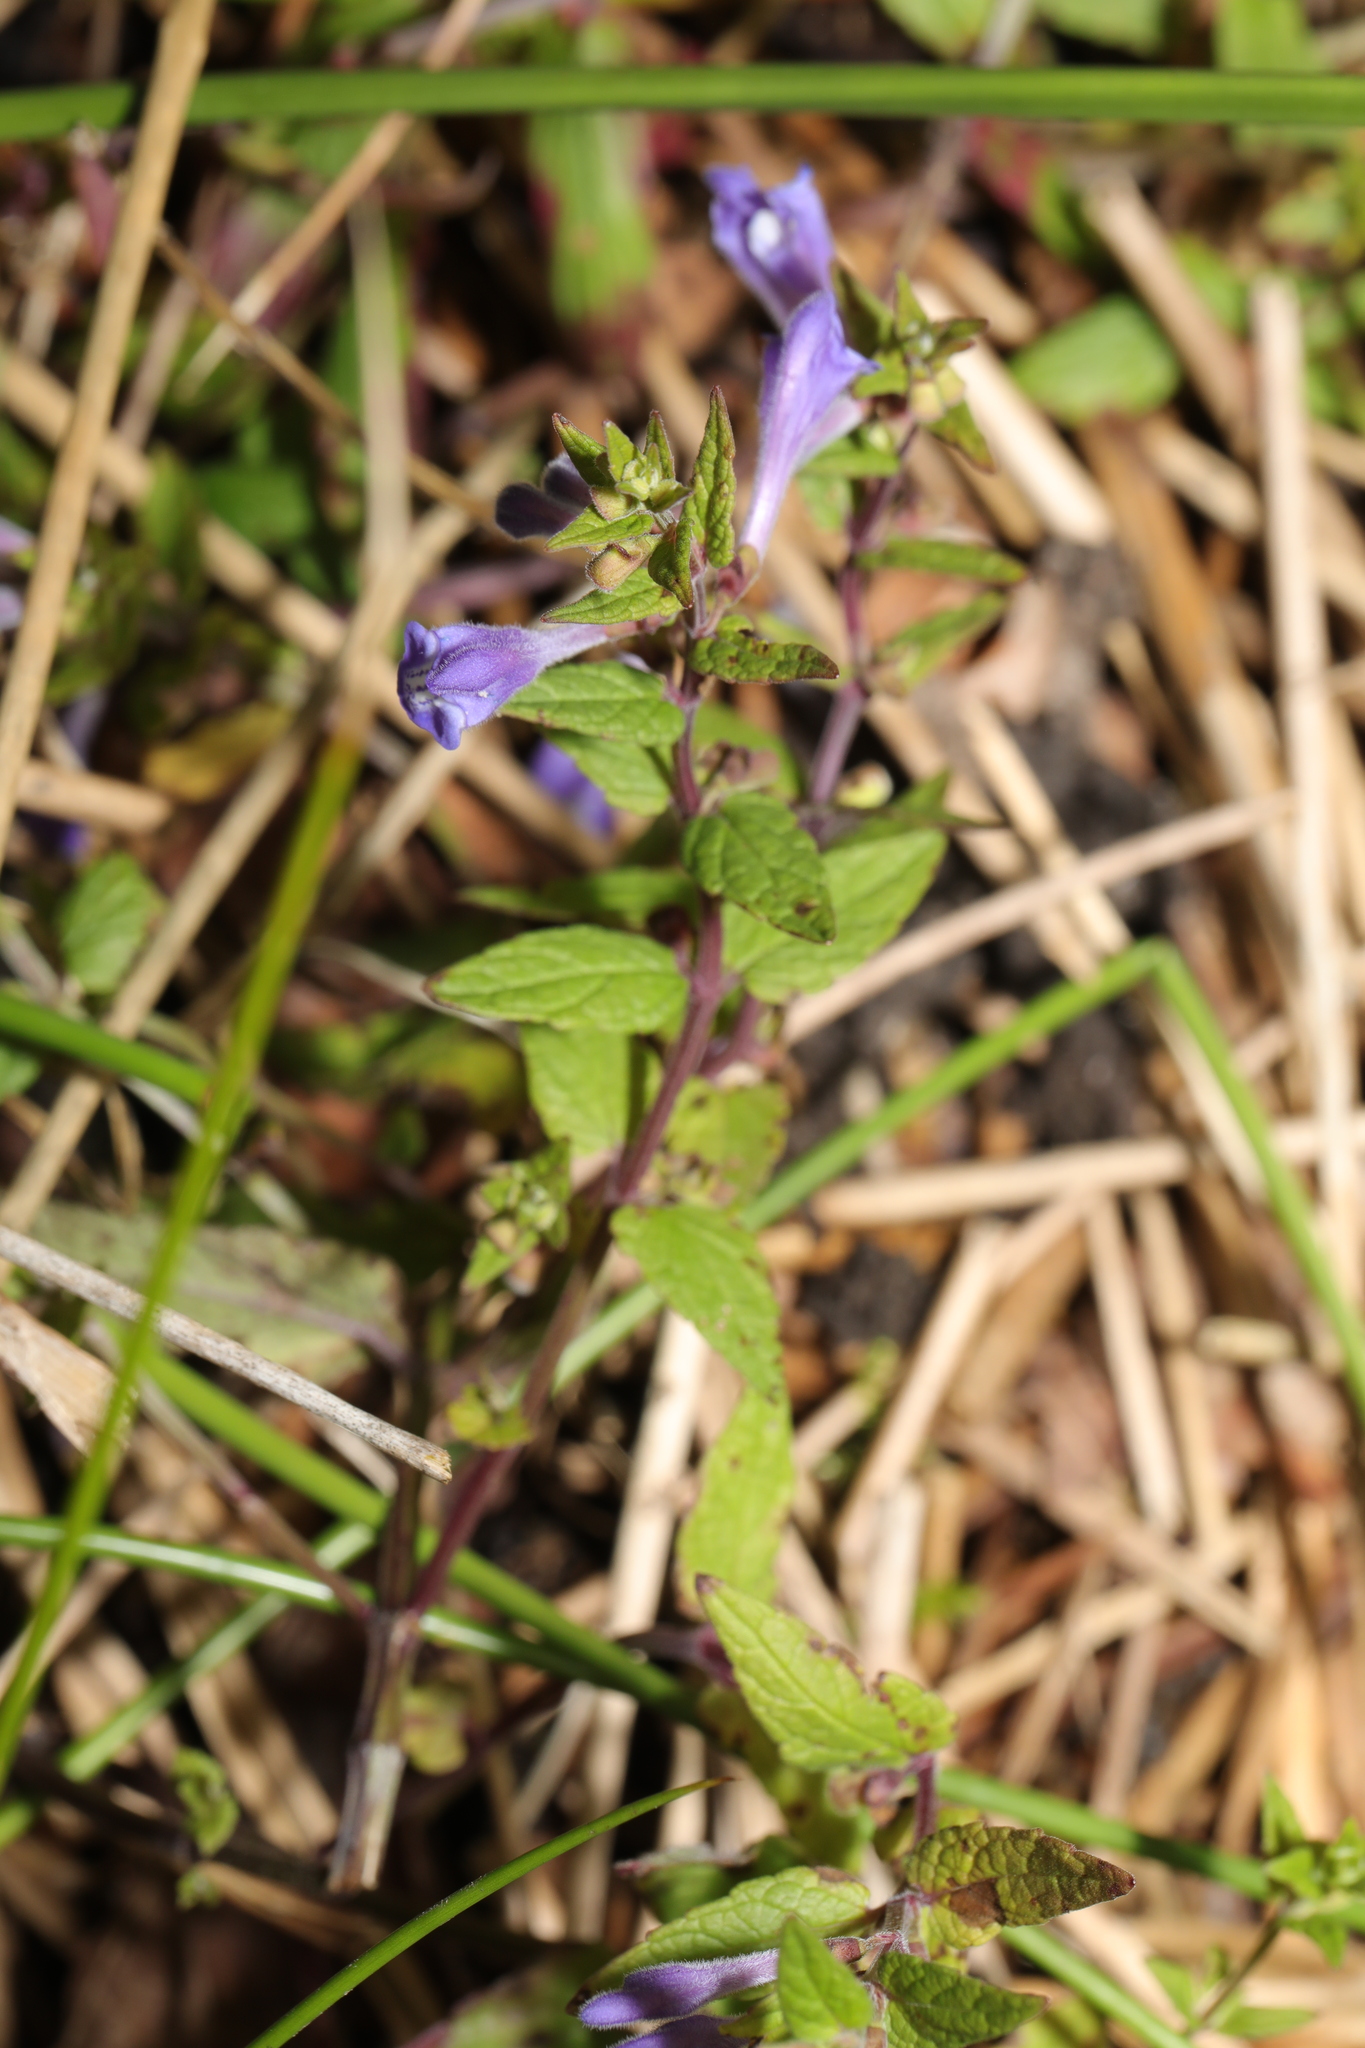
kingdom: Plantae
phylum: Tracheophyta
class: Magnoliopsida
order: Lamiales
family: Lamiaceae
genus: Scutellaria
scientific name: Scutellaria galericulata
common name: Skullcap
